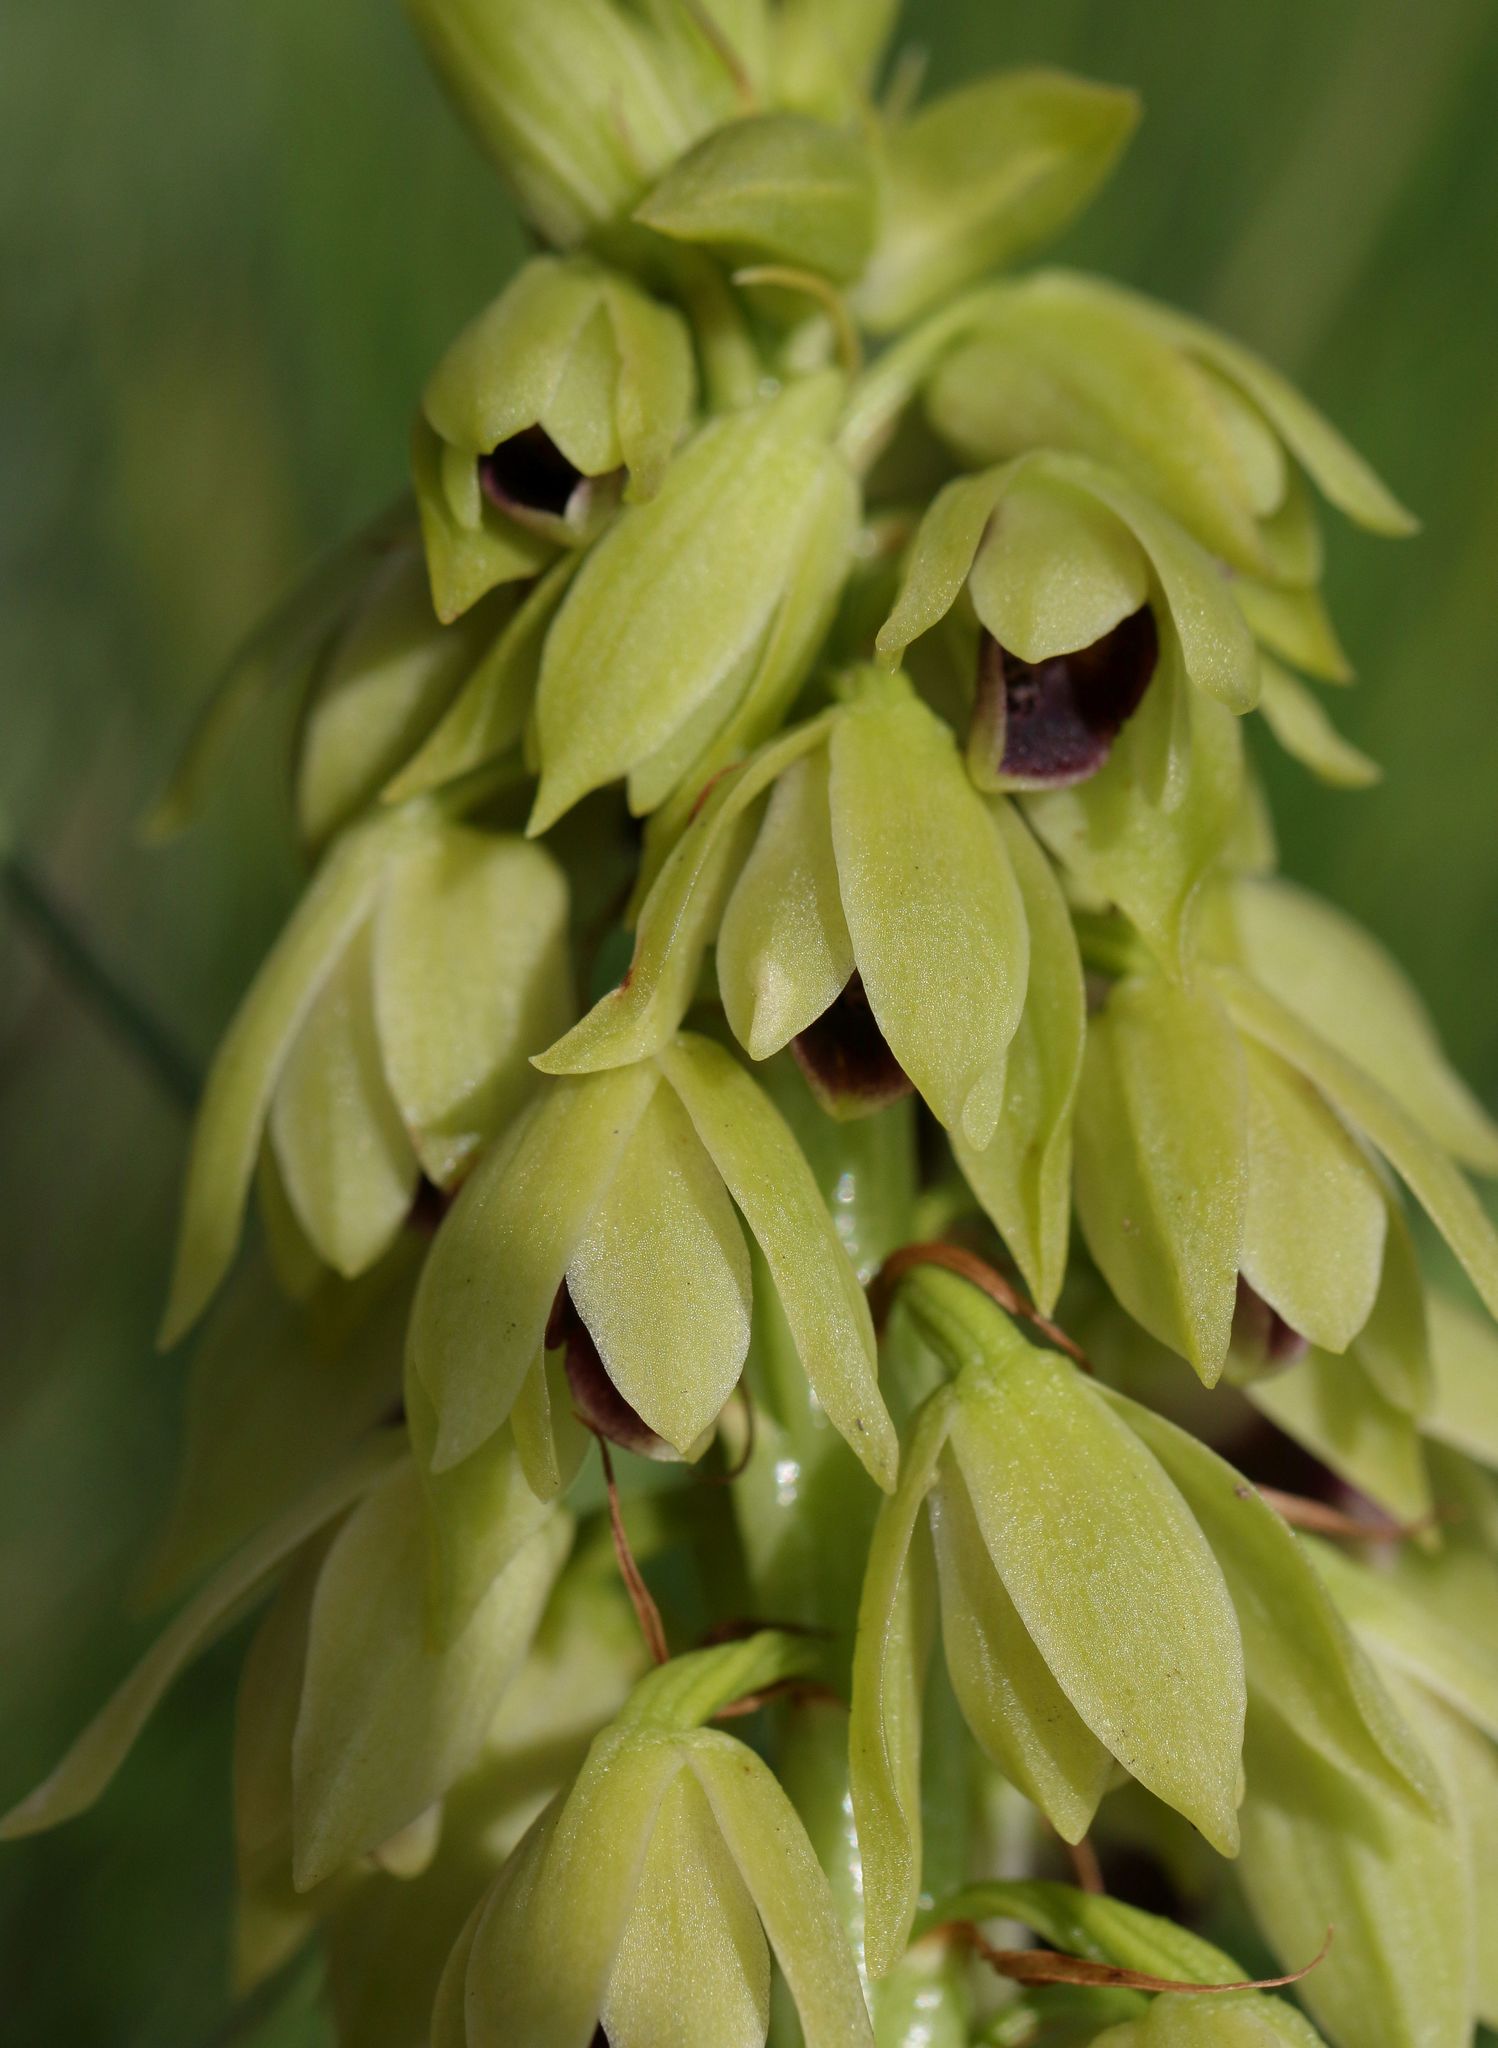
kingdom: Plantae
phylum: Tracheophyta
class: Liliopsida
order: Asparagales
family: Orchidaceae
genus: Eulophia
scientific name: Eulophia foliosa
